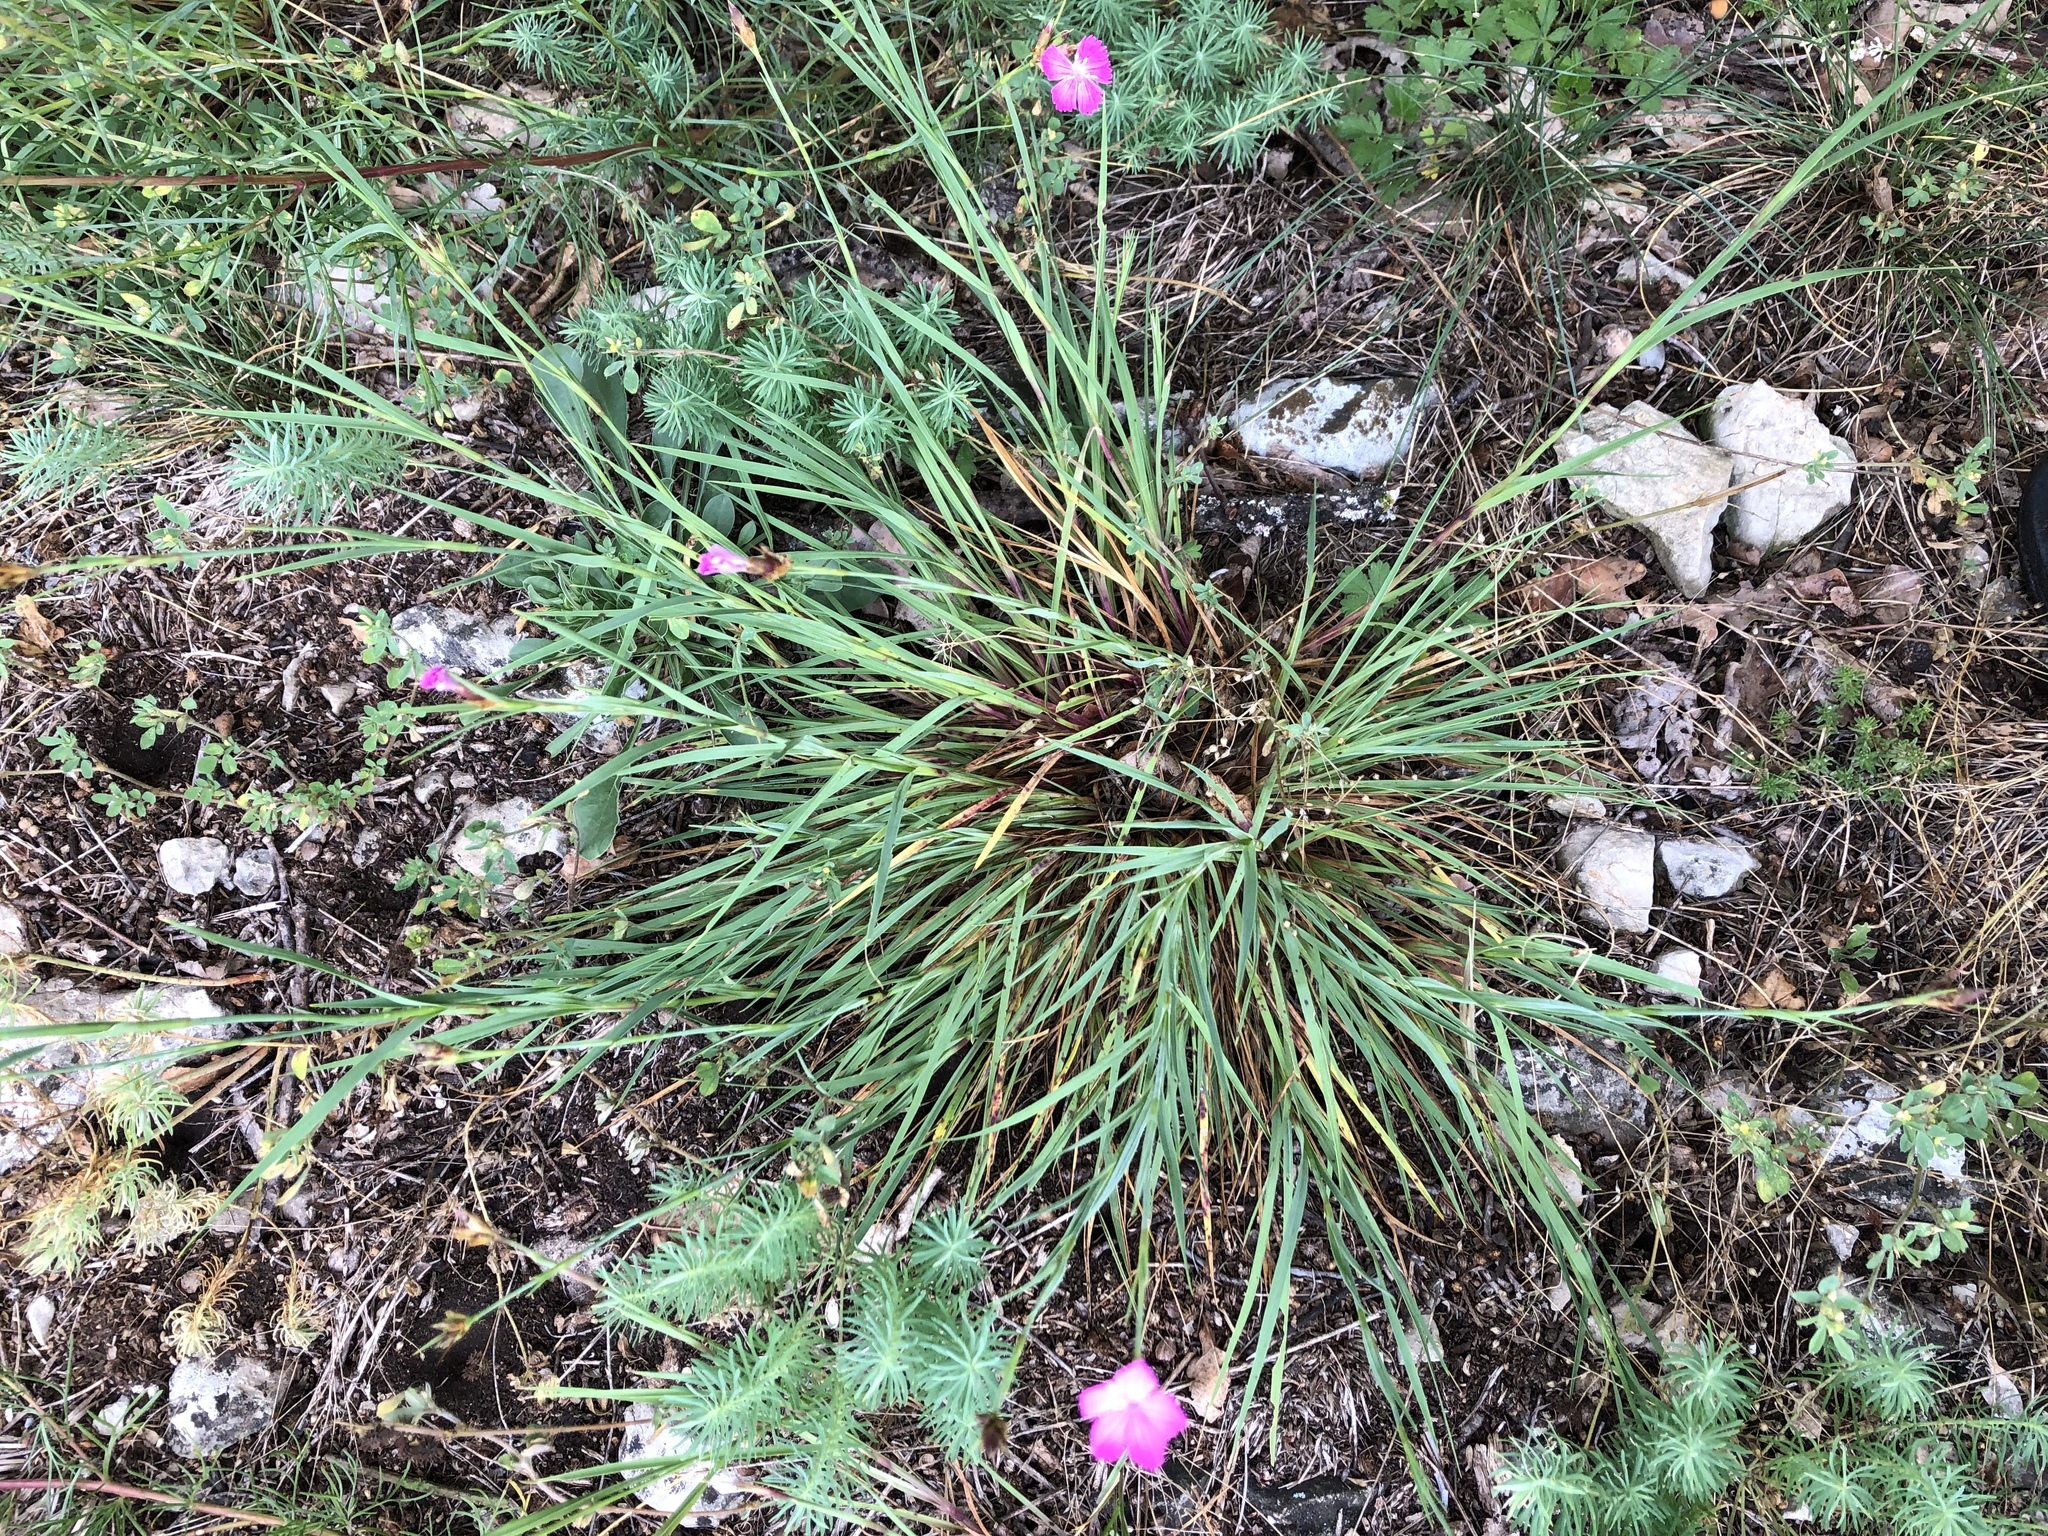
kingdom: Plantae
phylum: Tracheophyta
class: Magnoliopsida
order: Caryophyllales
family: Caryophyllaceae
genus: Dianthus
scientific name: Dianthus carthusianorum
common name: Carthusian pink
